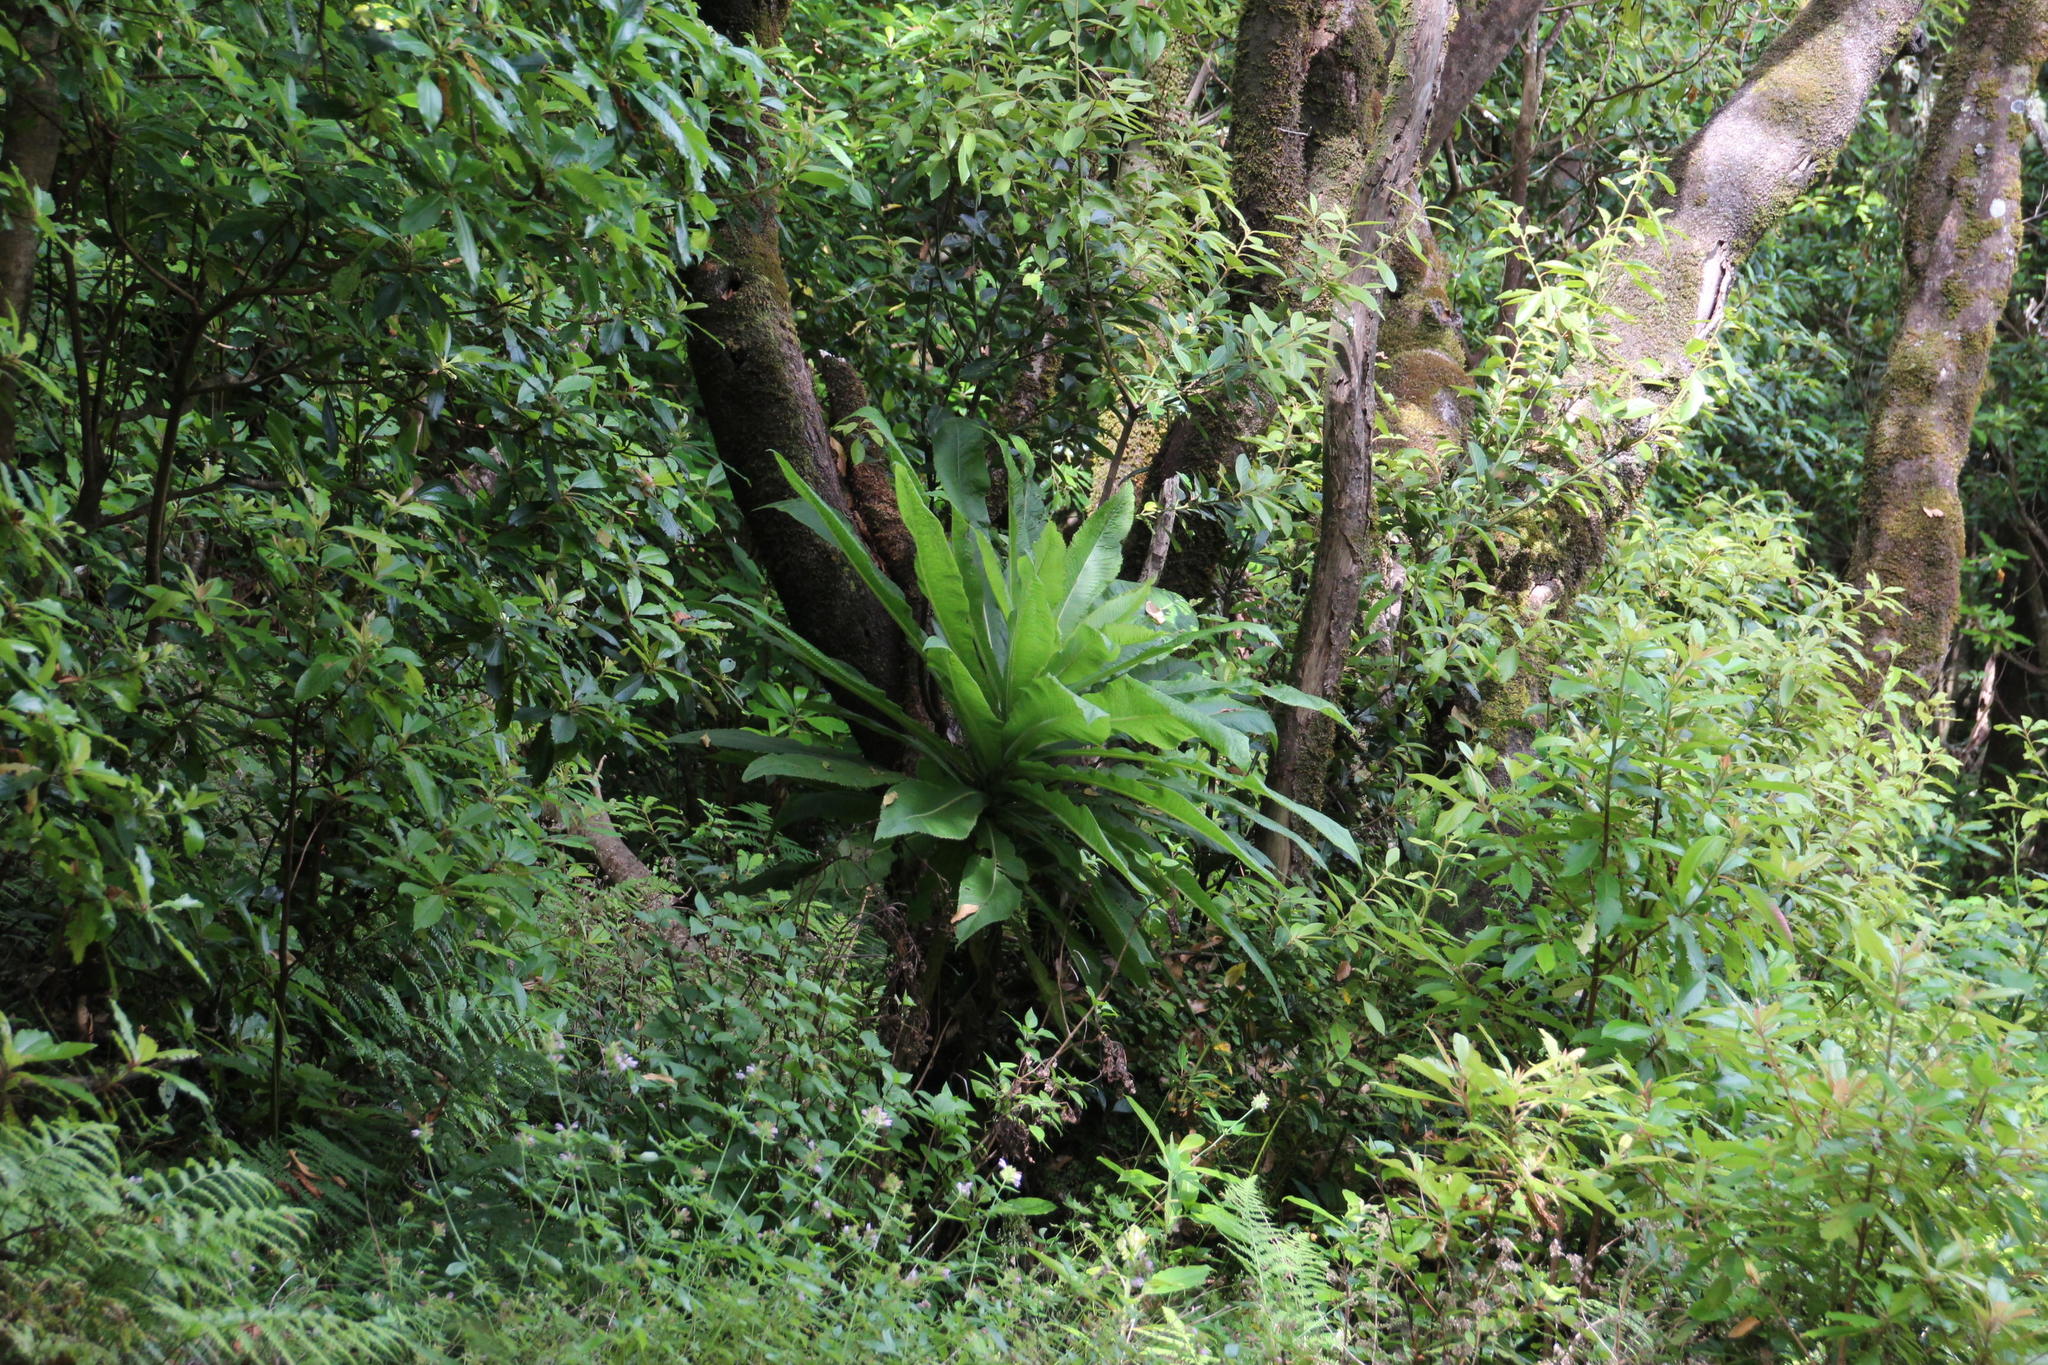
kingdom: Plantae
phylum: Tracheophyta
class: Magnoliopsida
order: Asterales
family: Campanulaceae
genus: Musschia
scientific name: Musschia wollastonii
